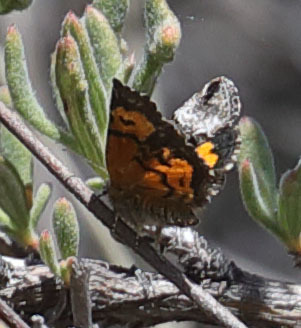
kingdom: Animalia
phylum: Arthropoda
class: Insecta
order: Lepidoptera
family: Noctuidae
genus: Annaphila
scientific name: Annaphila decia
